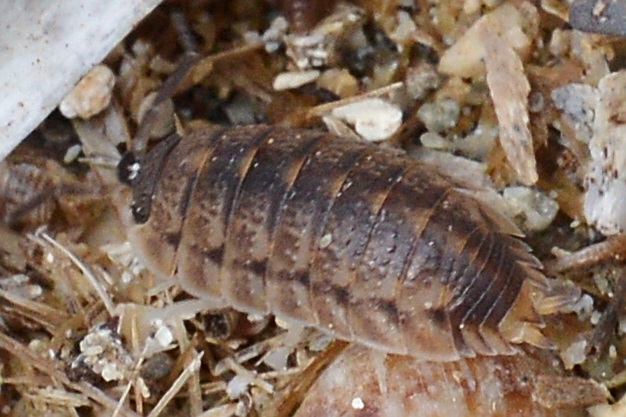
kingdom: Animalia
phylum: Arthropoda
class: Malacostraca
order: Isopoda
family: Porcellionidae
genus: Porcellio
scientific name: Porcellio lamellatus
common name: Isopod
